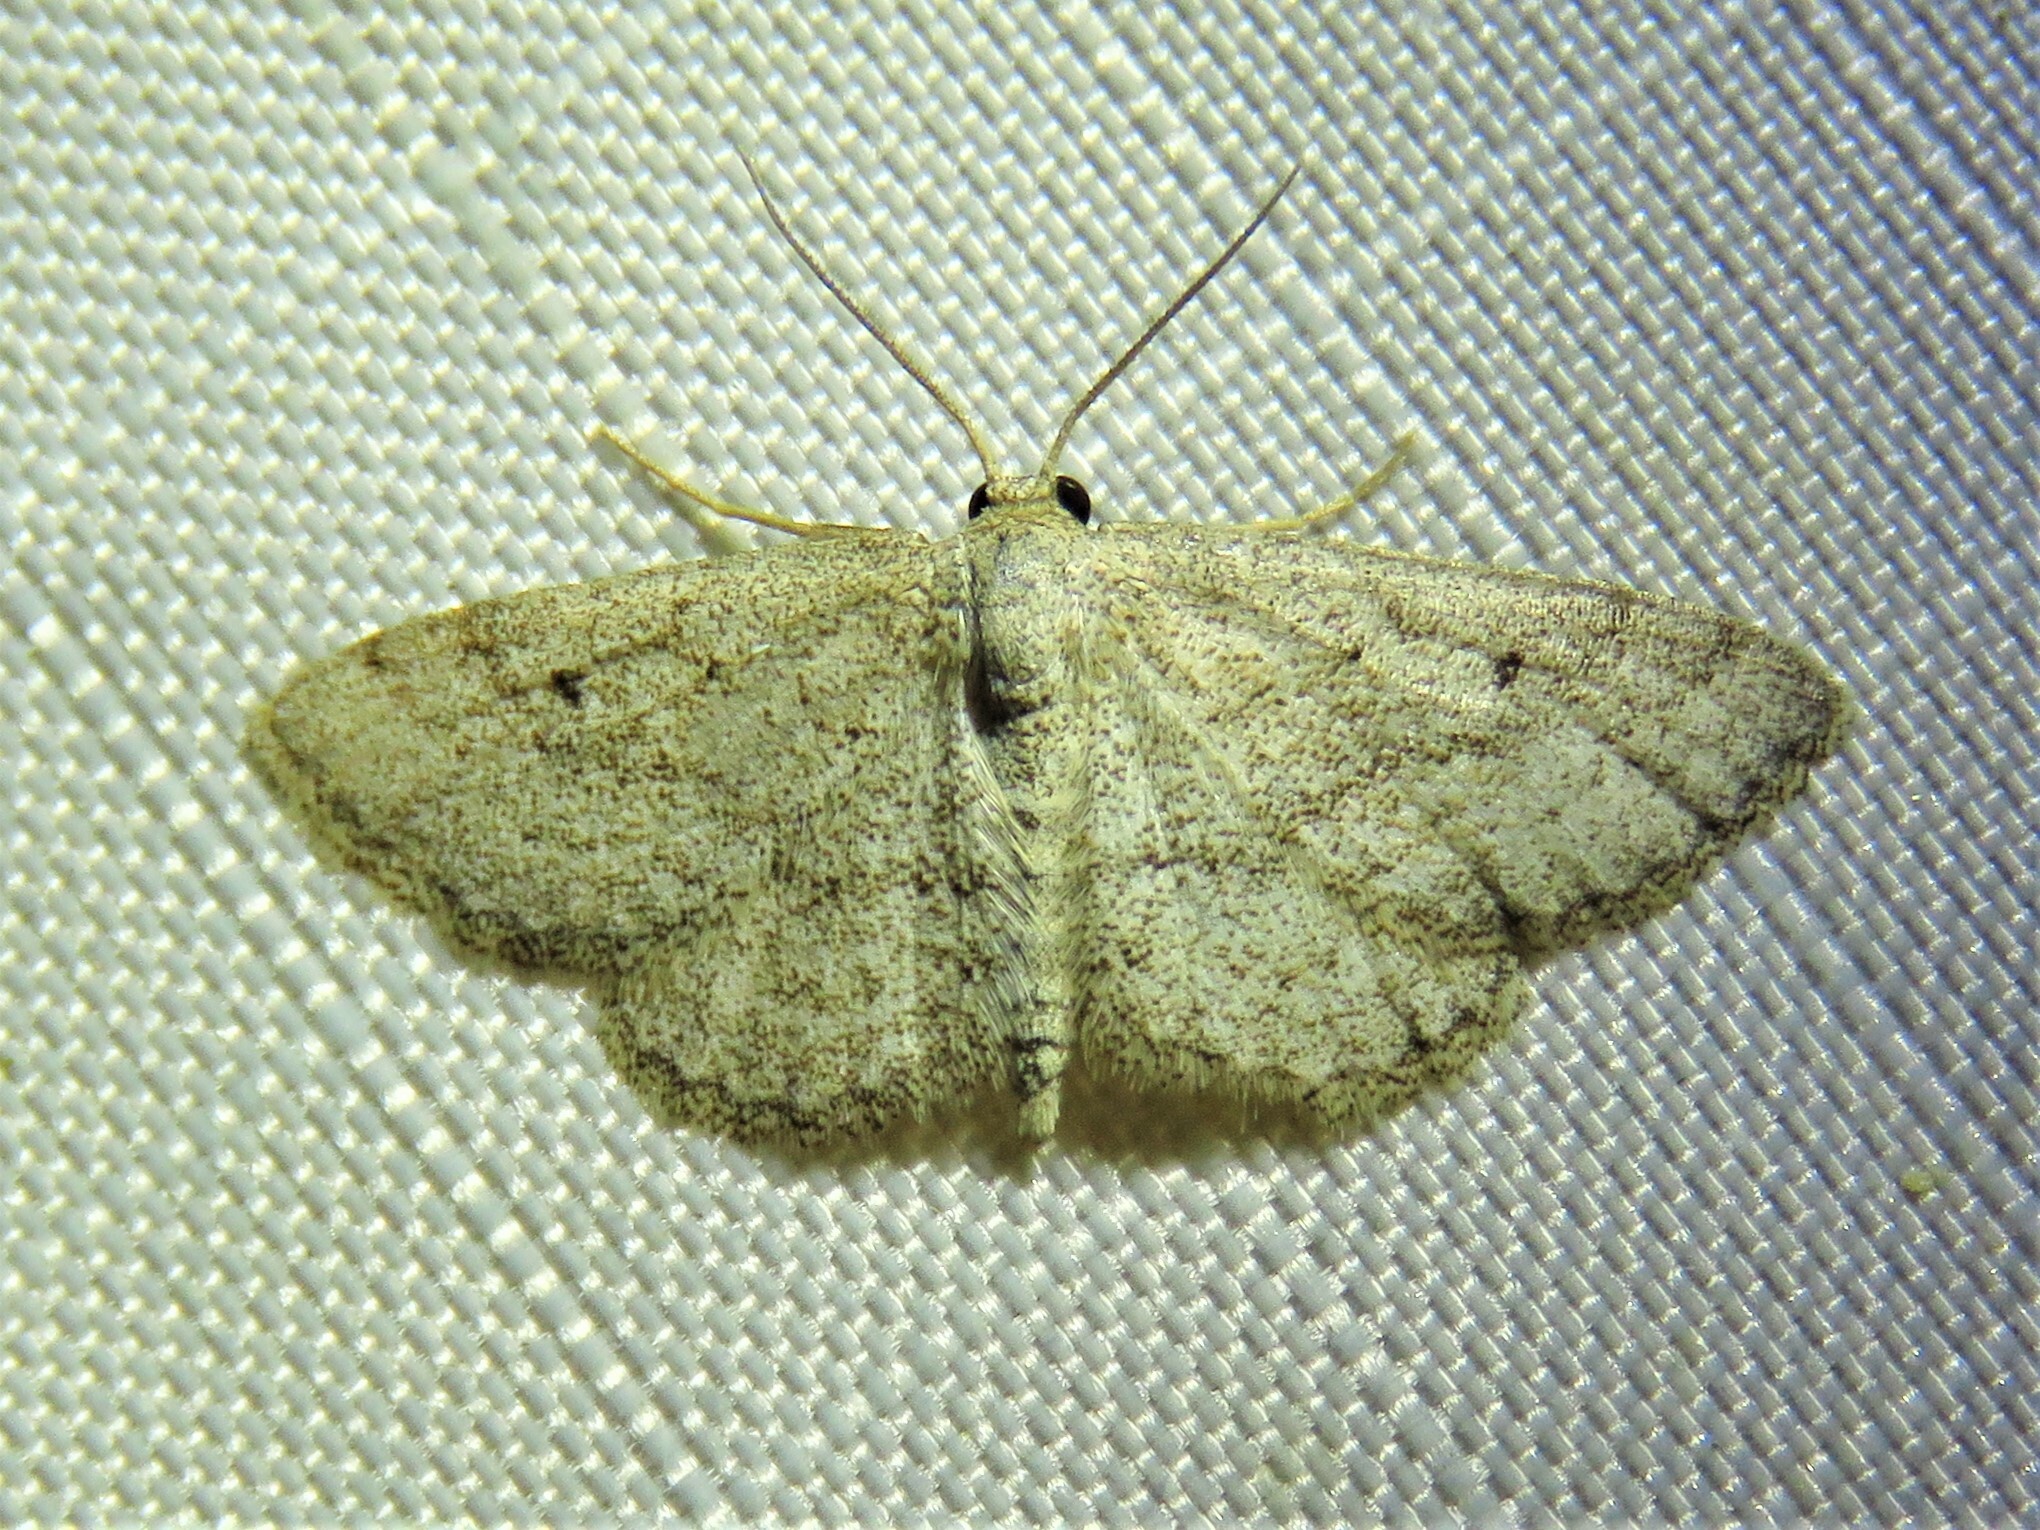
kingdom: Animalia
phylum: Arthropoda
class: Insecta
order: Lepidoptera
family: Geometridae
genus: Lobocleta
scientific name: Lobocleta ossularia
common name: Drab brown wave
